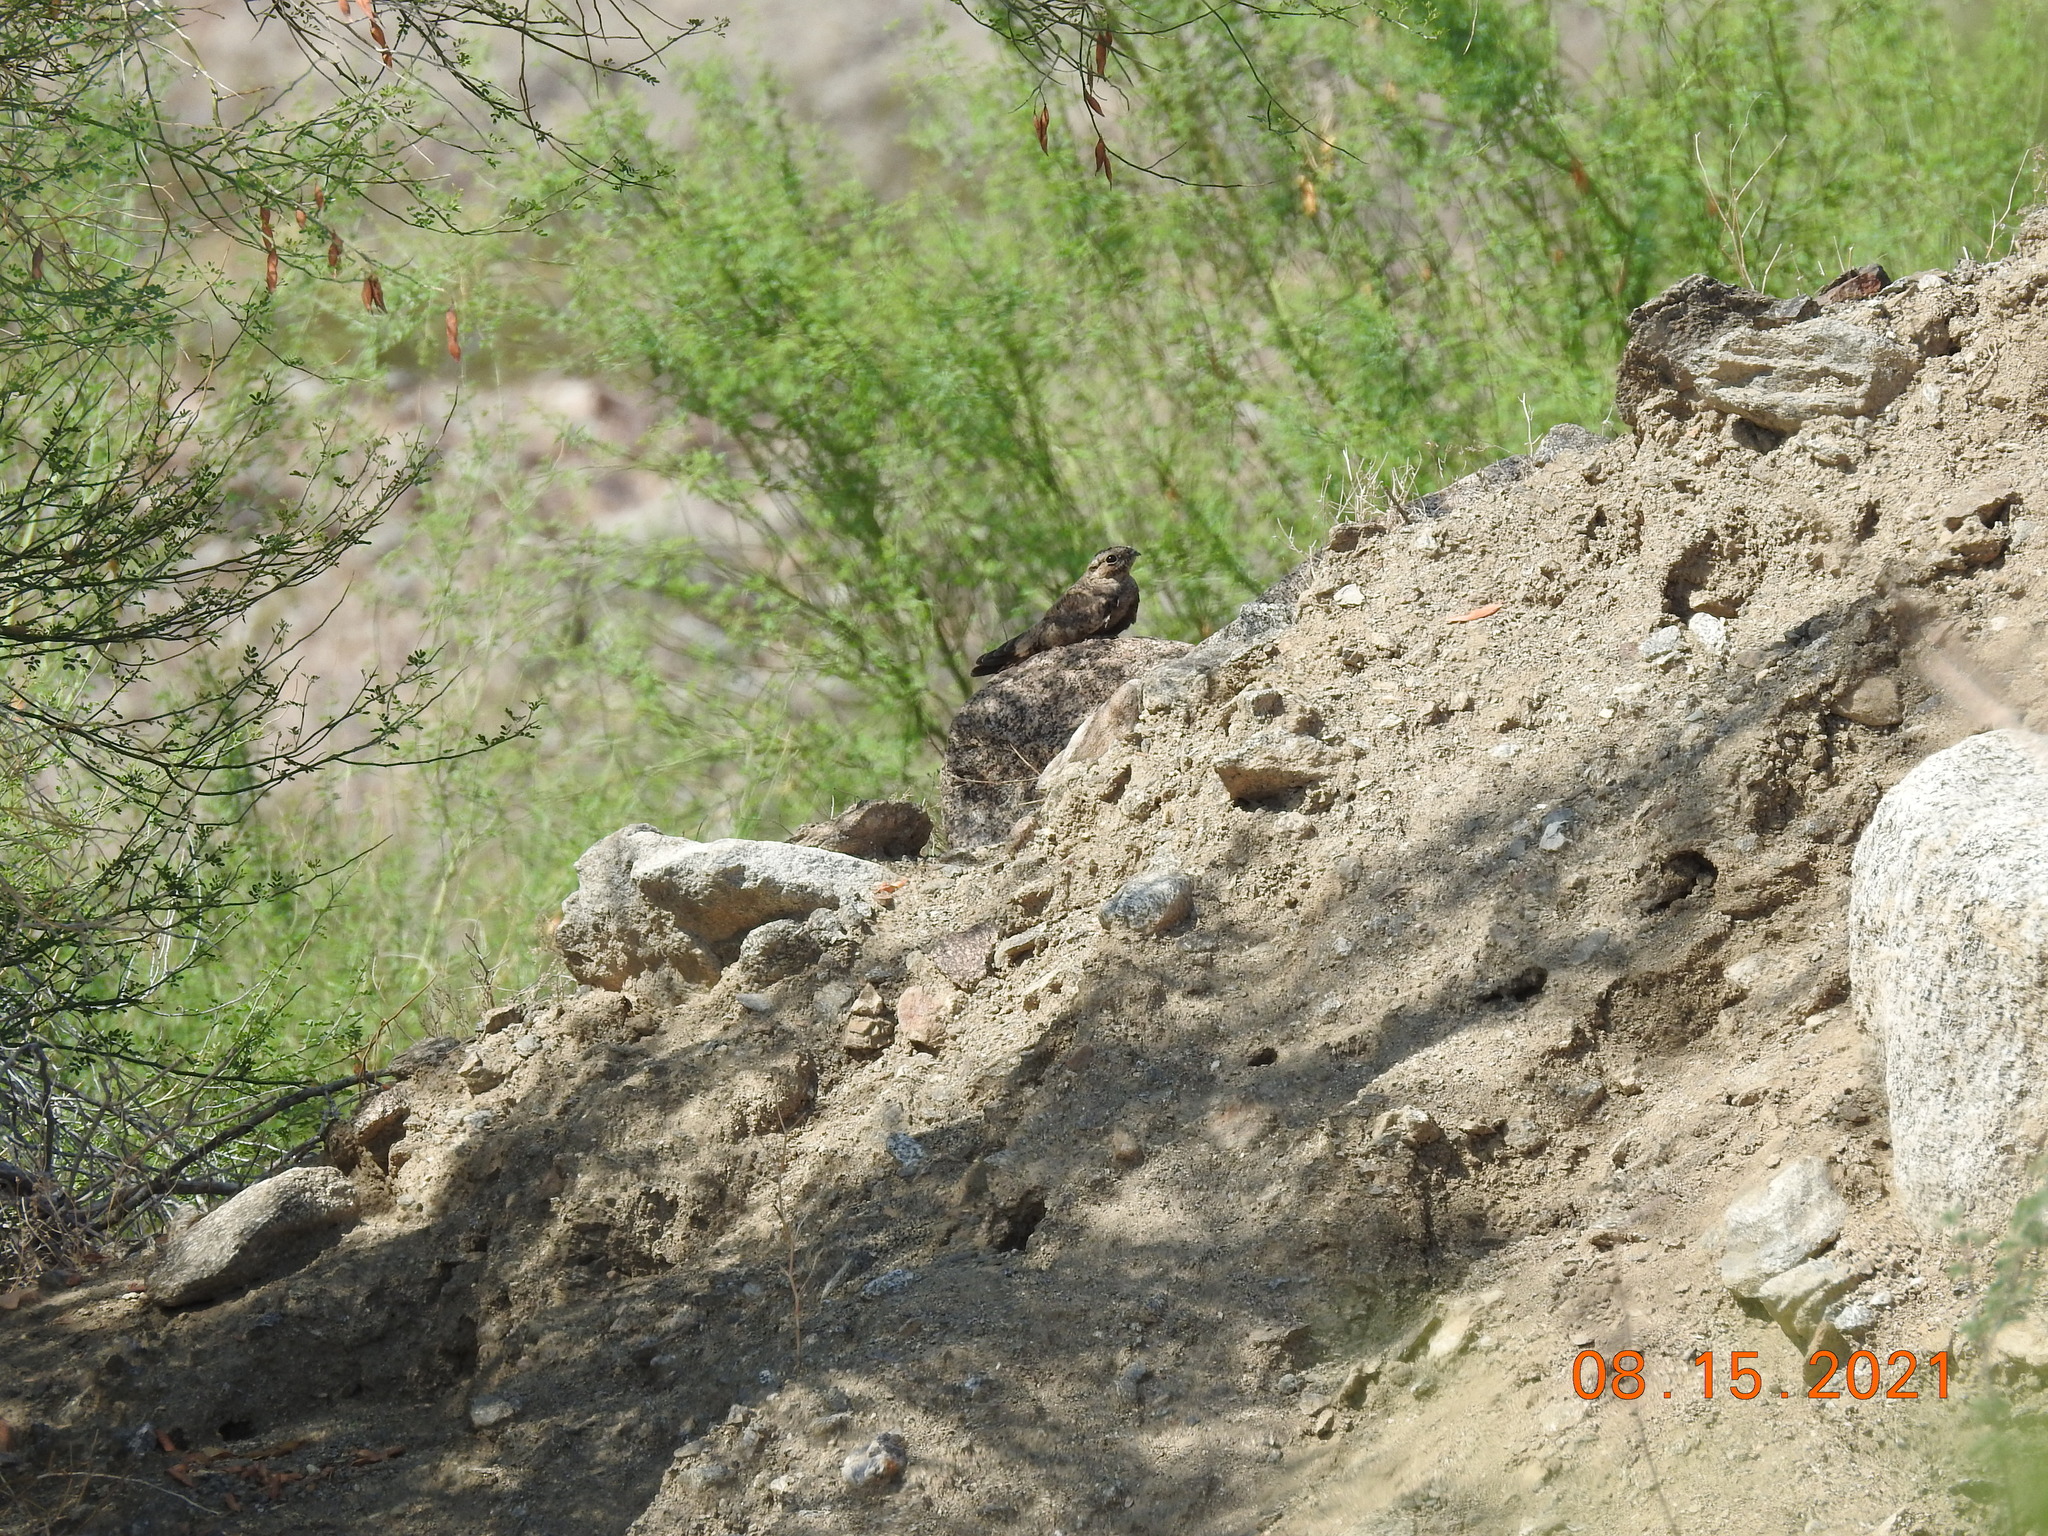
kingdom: Animalia
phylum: Chordata
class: Aves
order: Caprimulgiformes
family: Caprimulgidae
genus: Chordeiles
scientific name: Chordeiles acutipennis
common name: Lesser nighthawk
